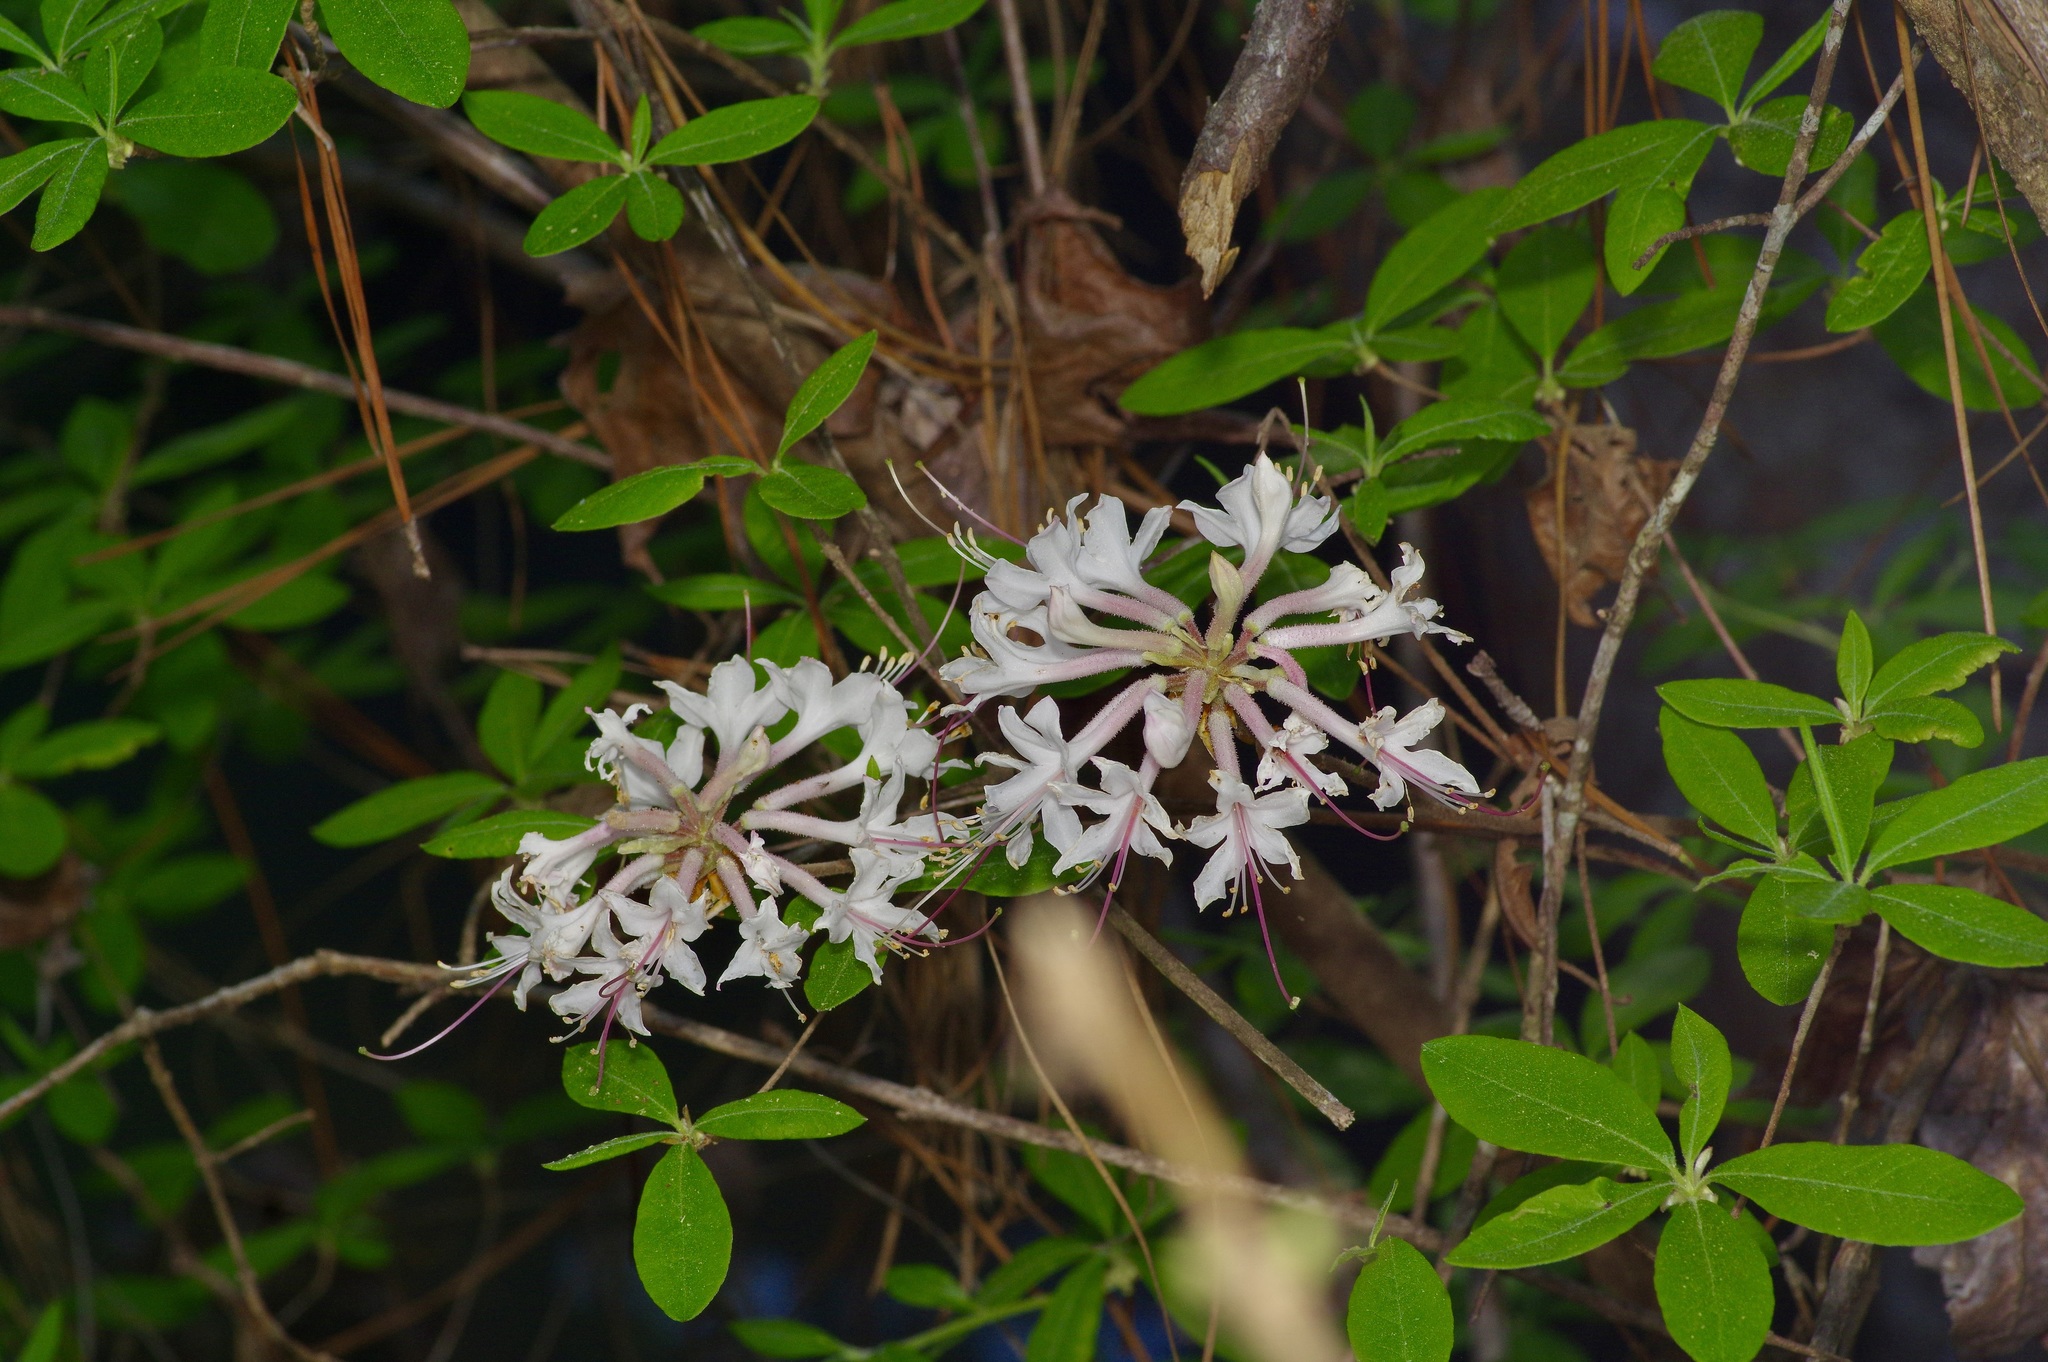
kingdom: Plantae
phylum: Tracheophyta
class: Magnoliopsida
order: Ericales
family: Ericaceae
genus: Rhododendron
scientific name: Rhododendron canescens
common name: Mountain azalea
